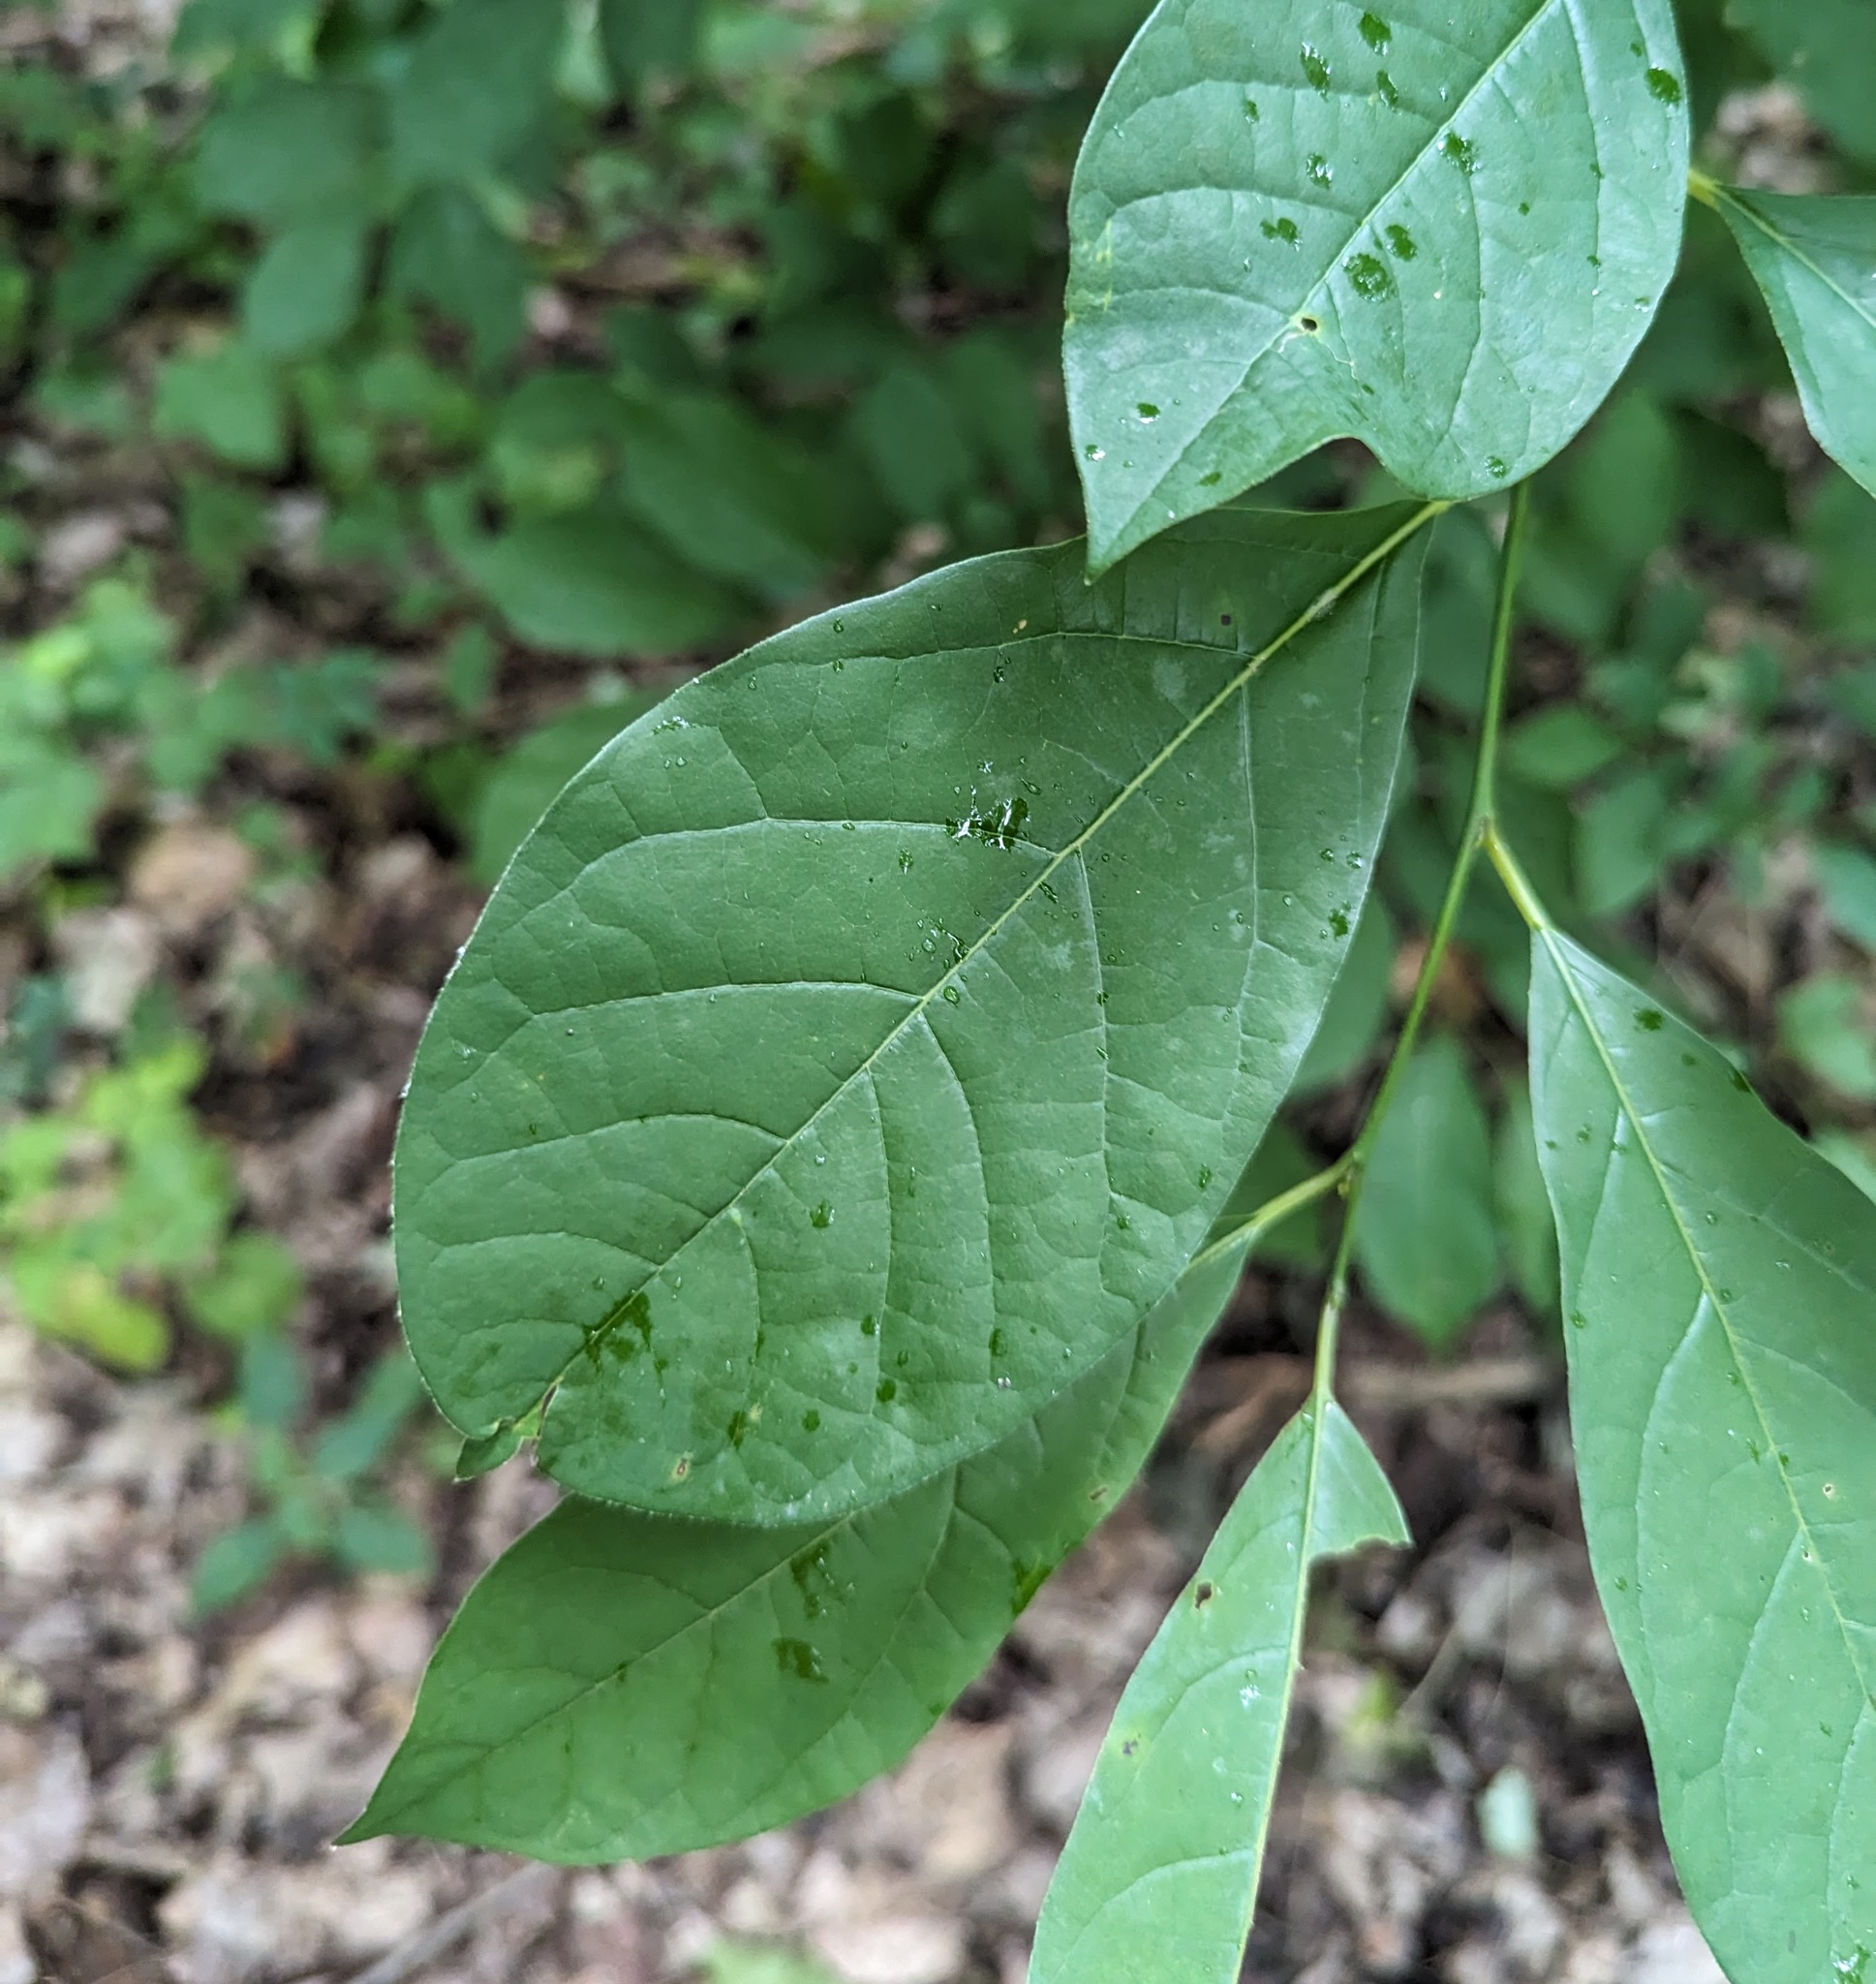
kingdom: Plantae
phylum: Tracheophyta
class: Magnoliopsida
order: Laurales
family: Lauraceae
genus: Lindera
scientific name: Lindera benzoin
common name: Spicebush
